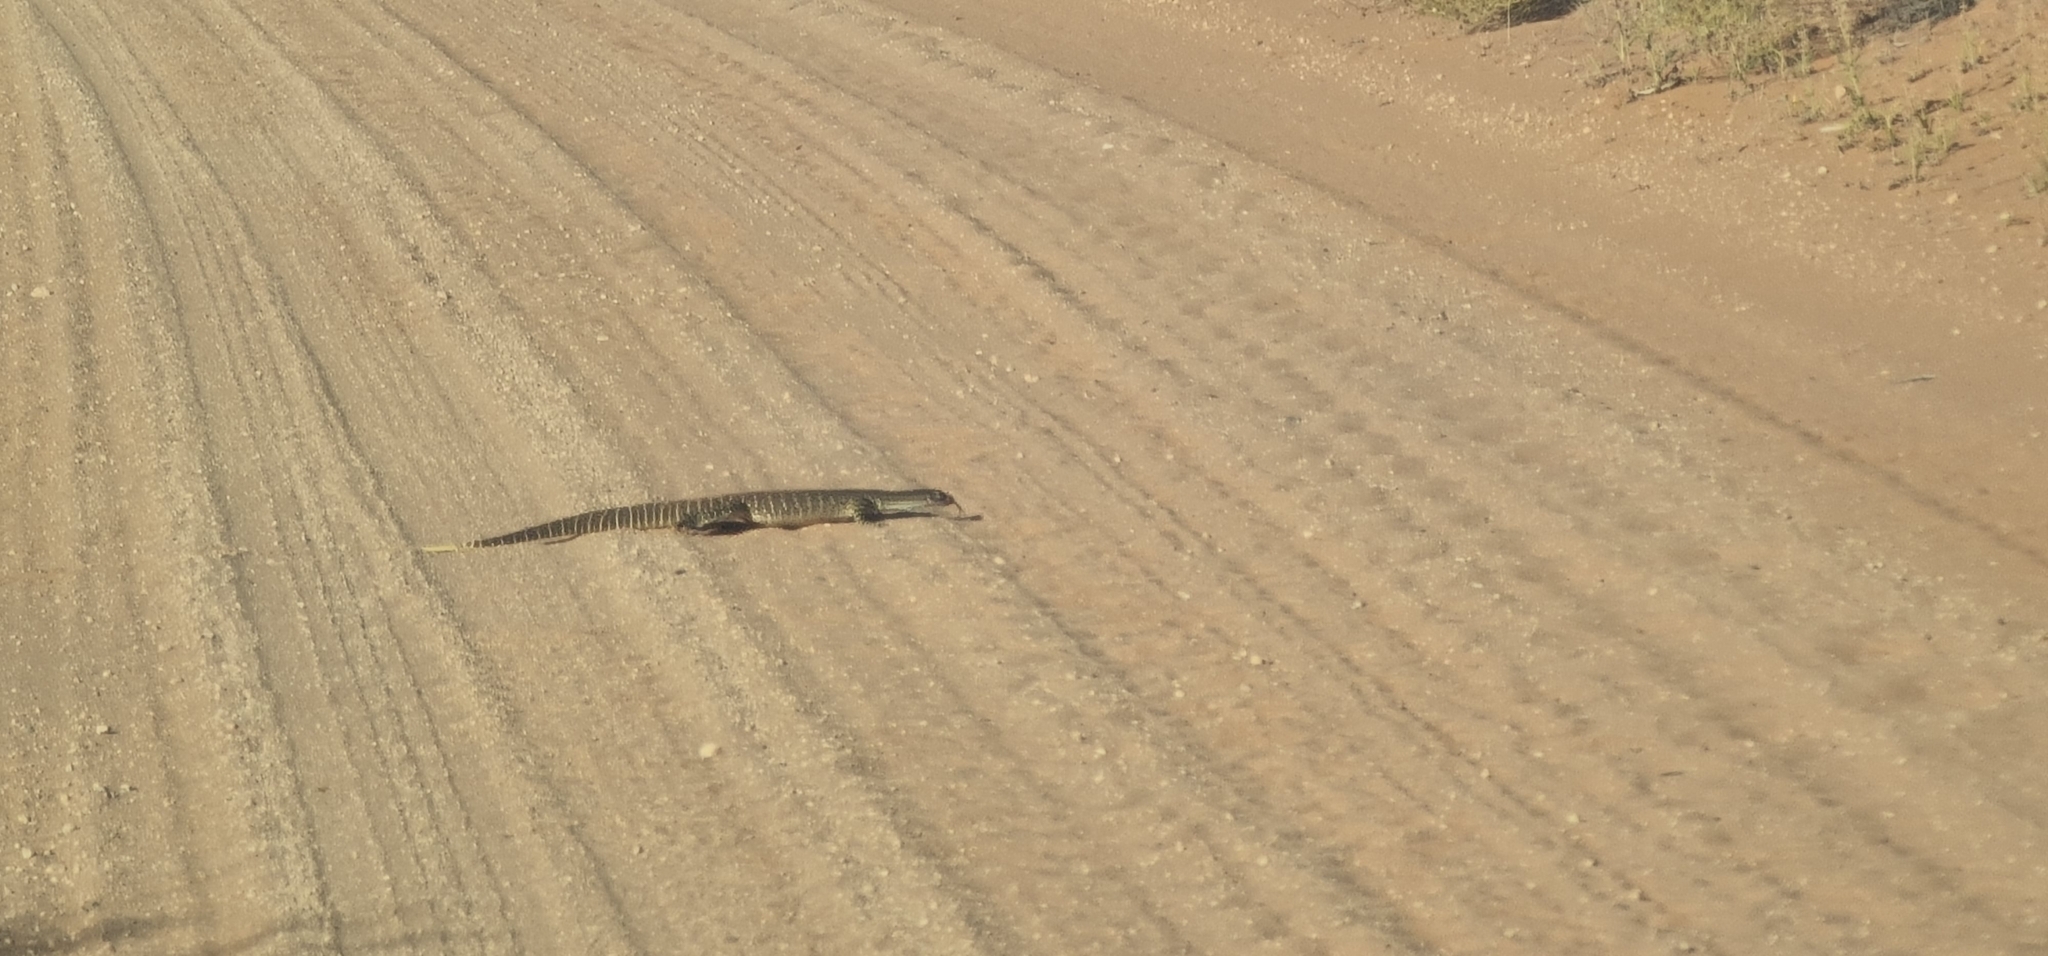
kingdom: Animalia
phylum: Chordata
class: Squamata
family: Varanidae
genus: Varanus
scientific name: Varanus gouldii
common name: Gould's goanna
